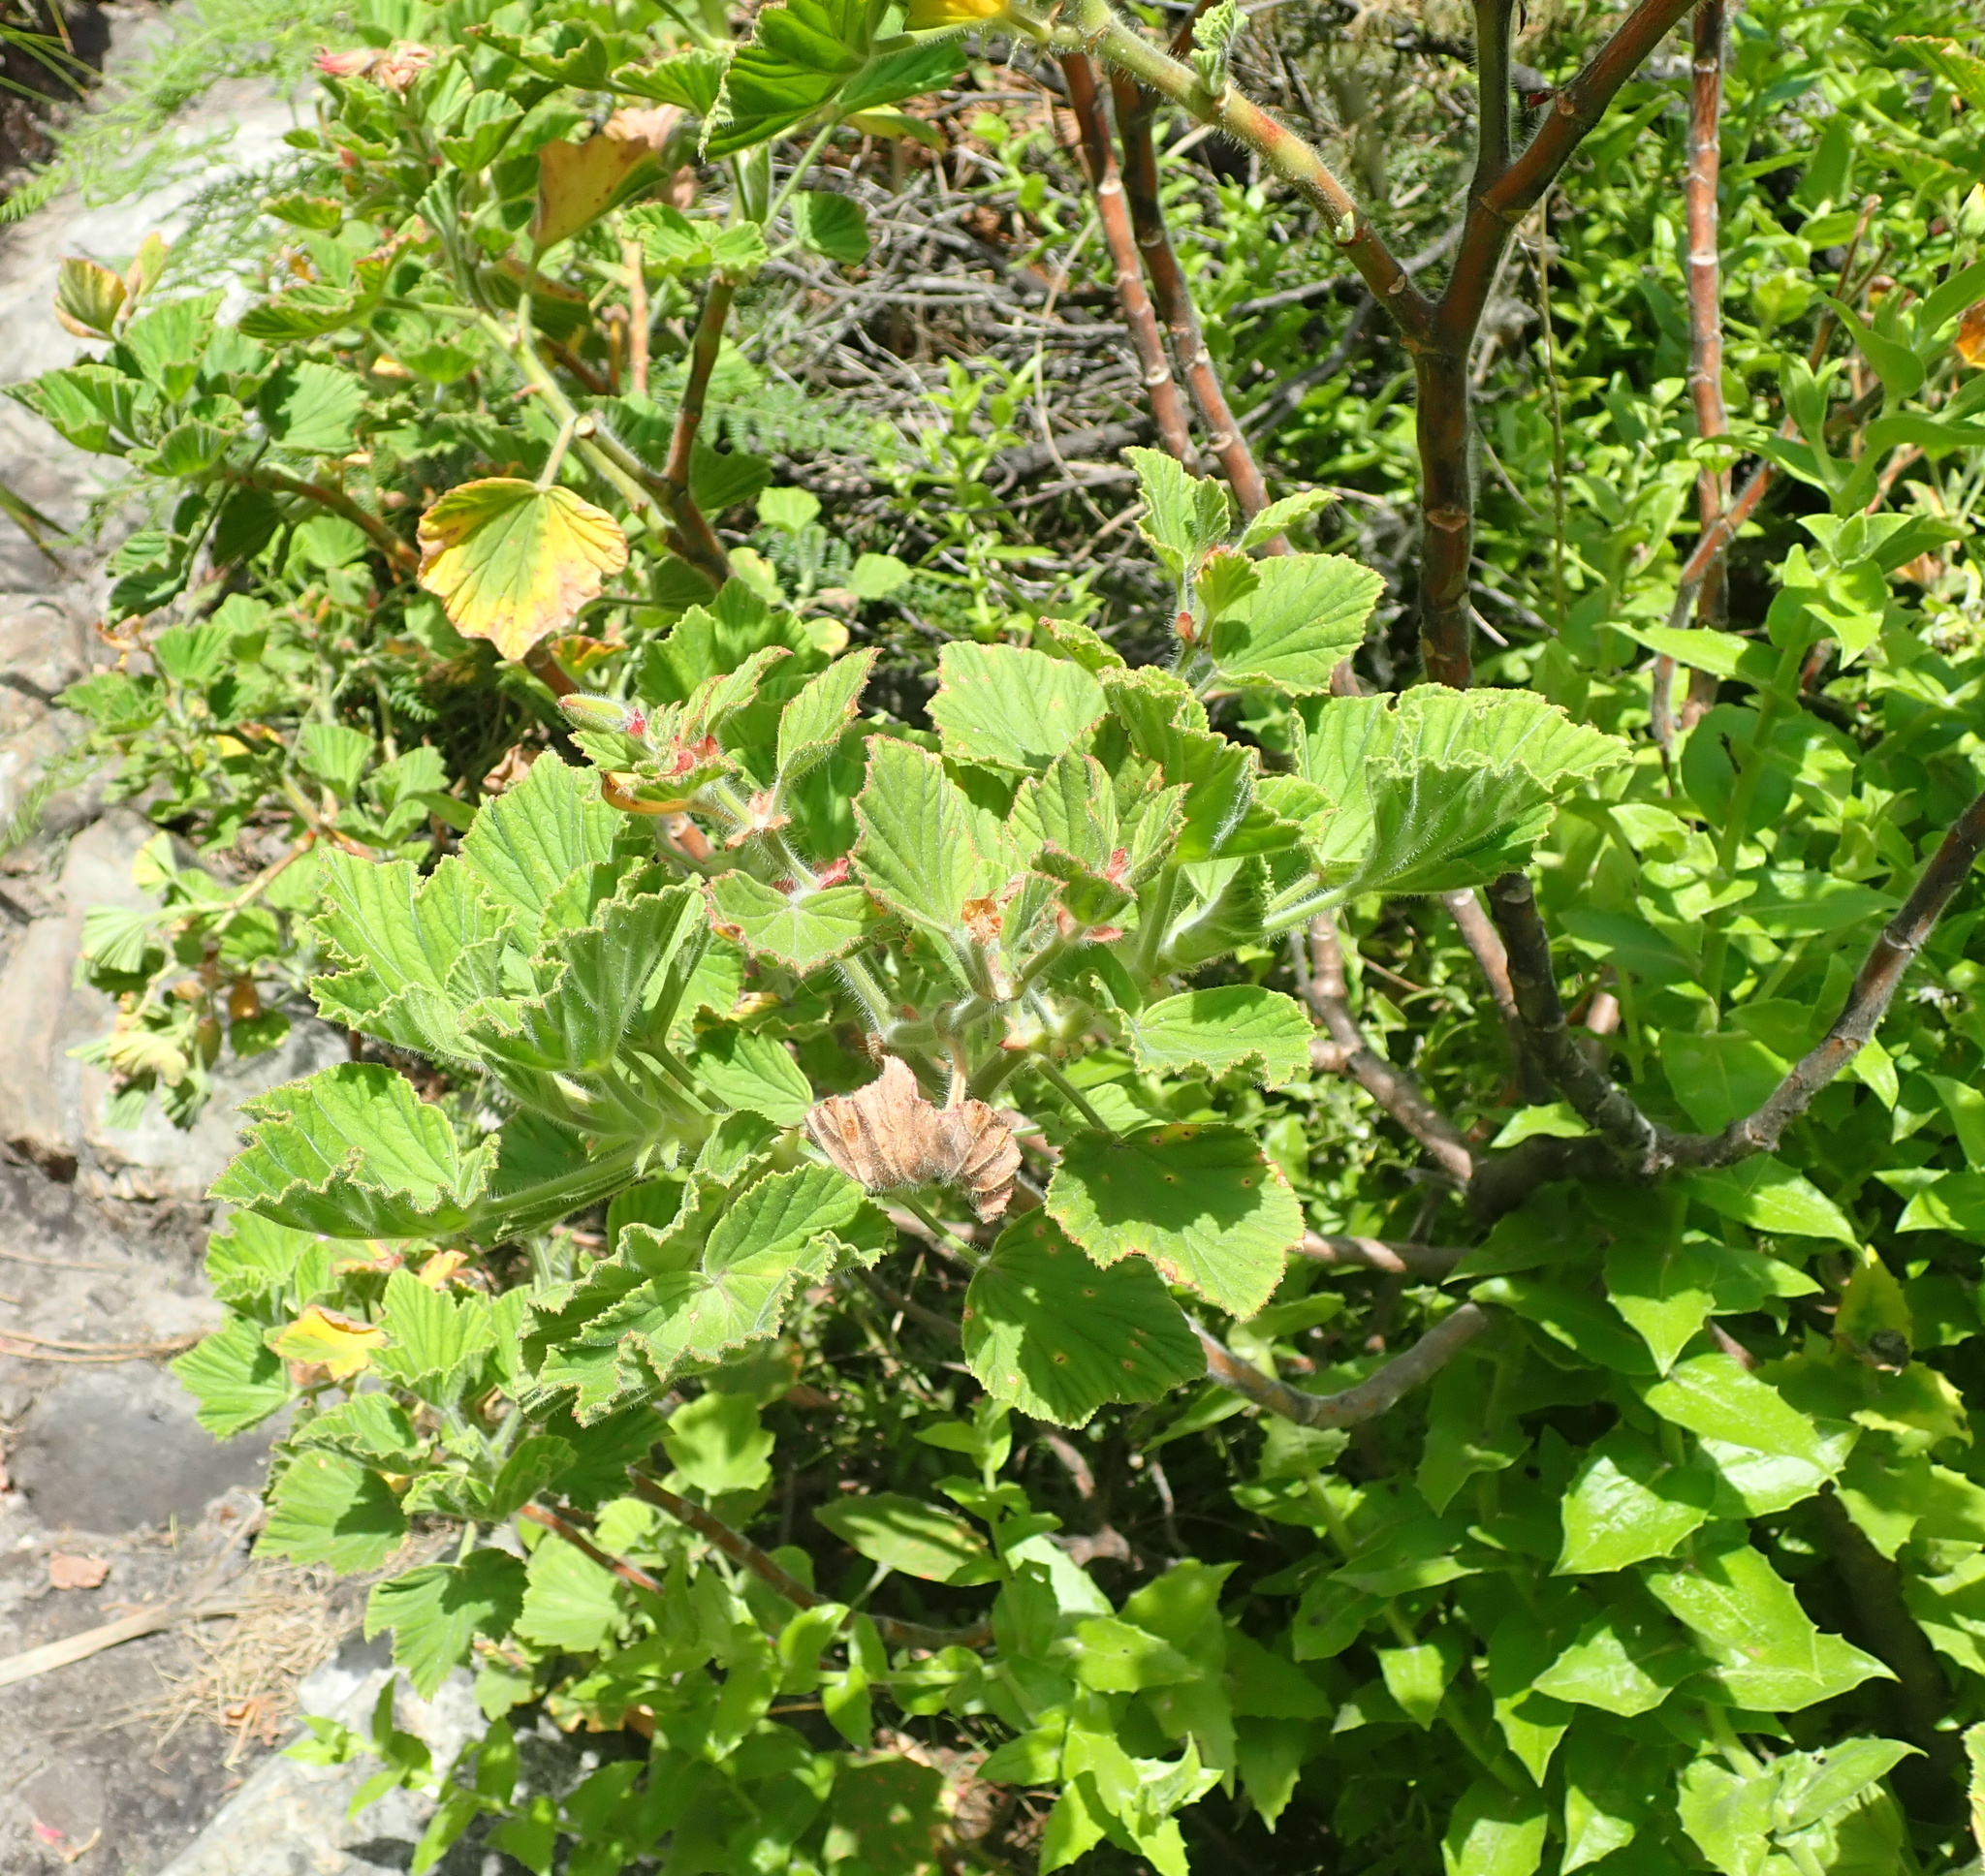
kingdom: Plantae
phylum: Tracheophyta
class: Magnoliopsida
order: Geraniales
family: Geraniaceae
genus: Pelargonium
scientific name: Pelargonium cucullatum
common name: Tree pelargonium
